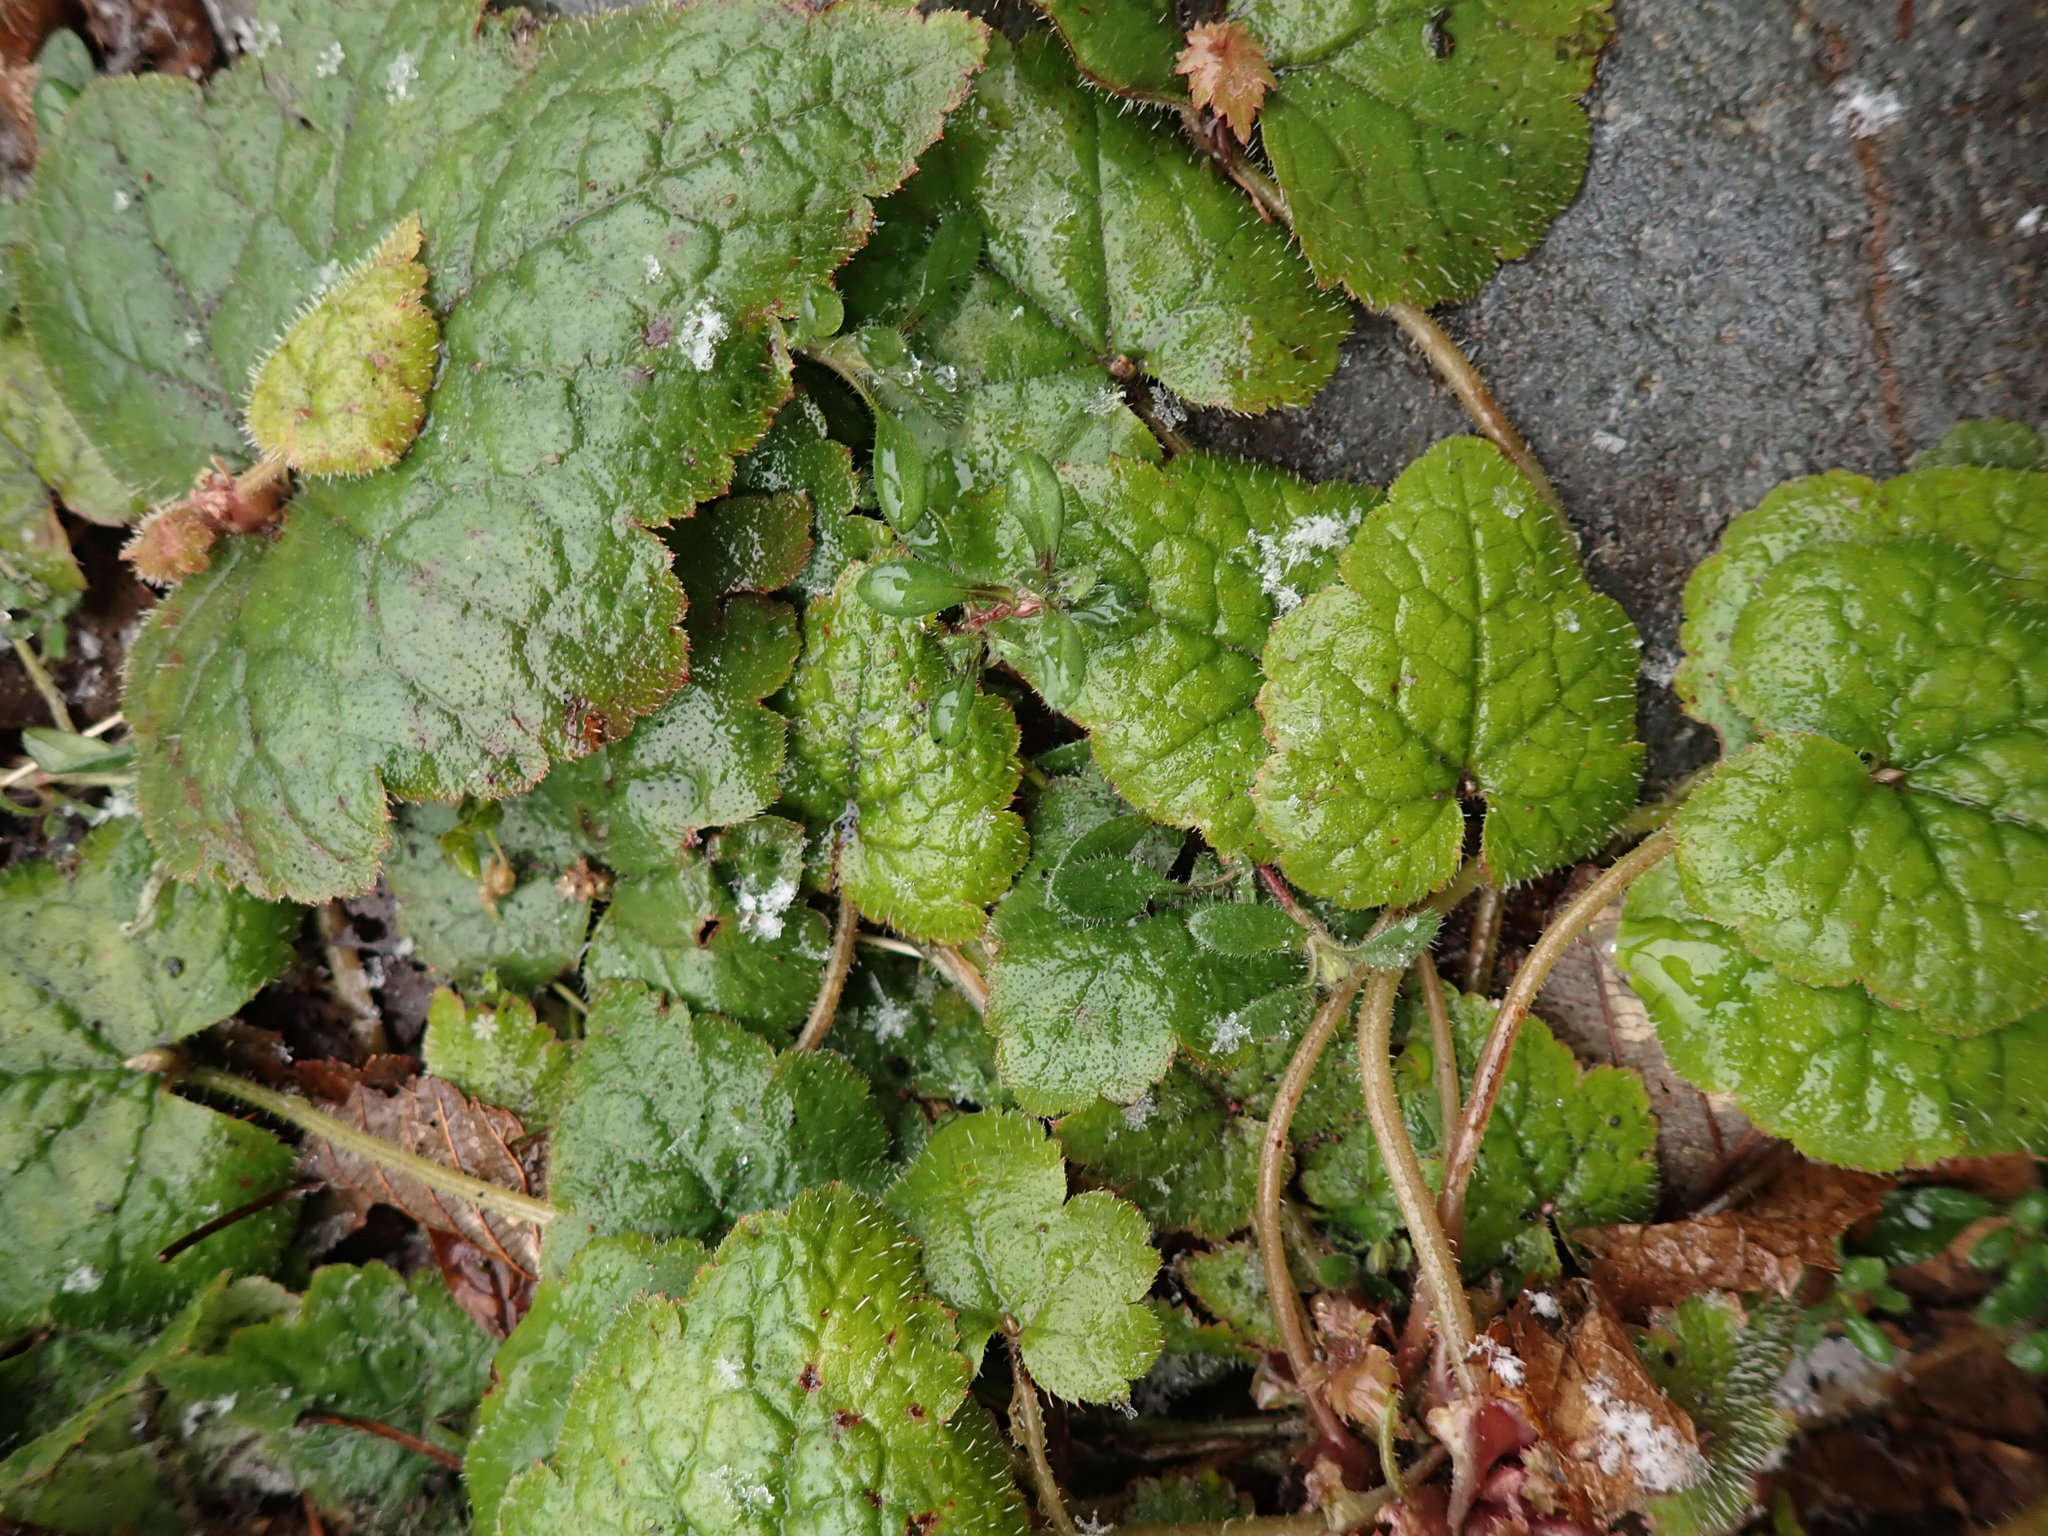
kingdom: Plantae
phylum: Tracheophyta
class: Magnoliopsida
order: Saxifragales
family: Saxifragaceae
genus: Tolmiea
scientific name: Tolmiea menziesii
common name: Pick-a-back-plant
